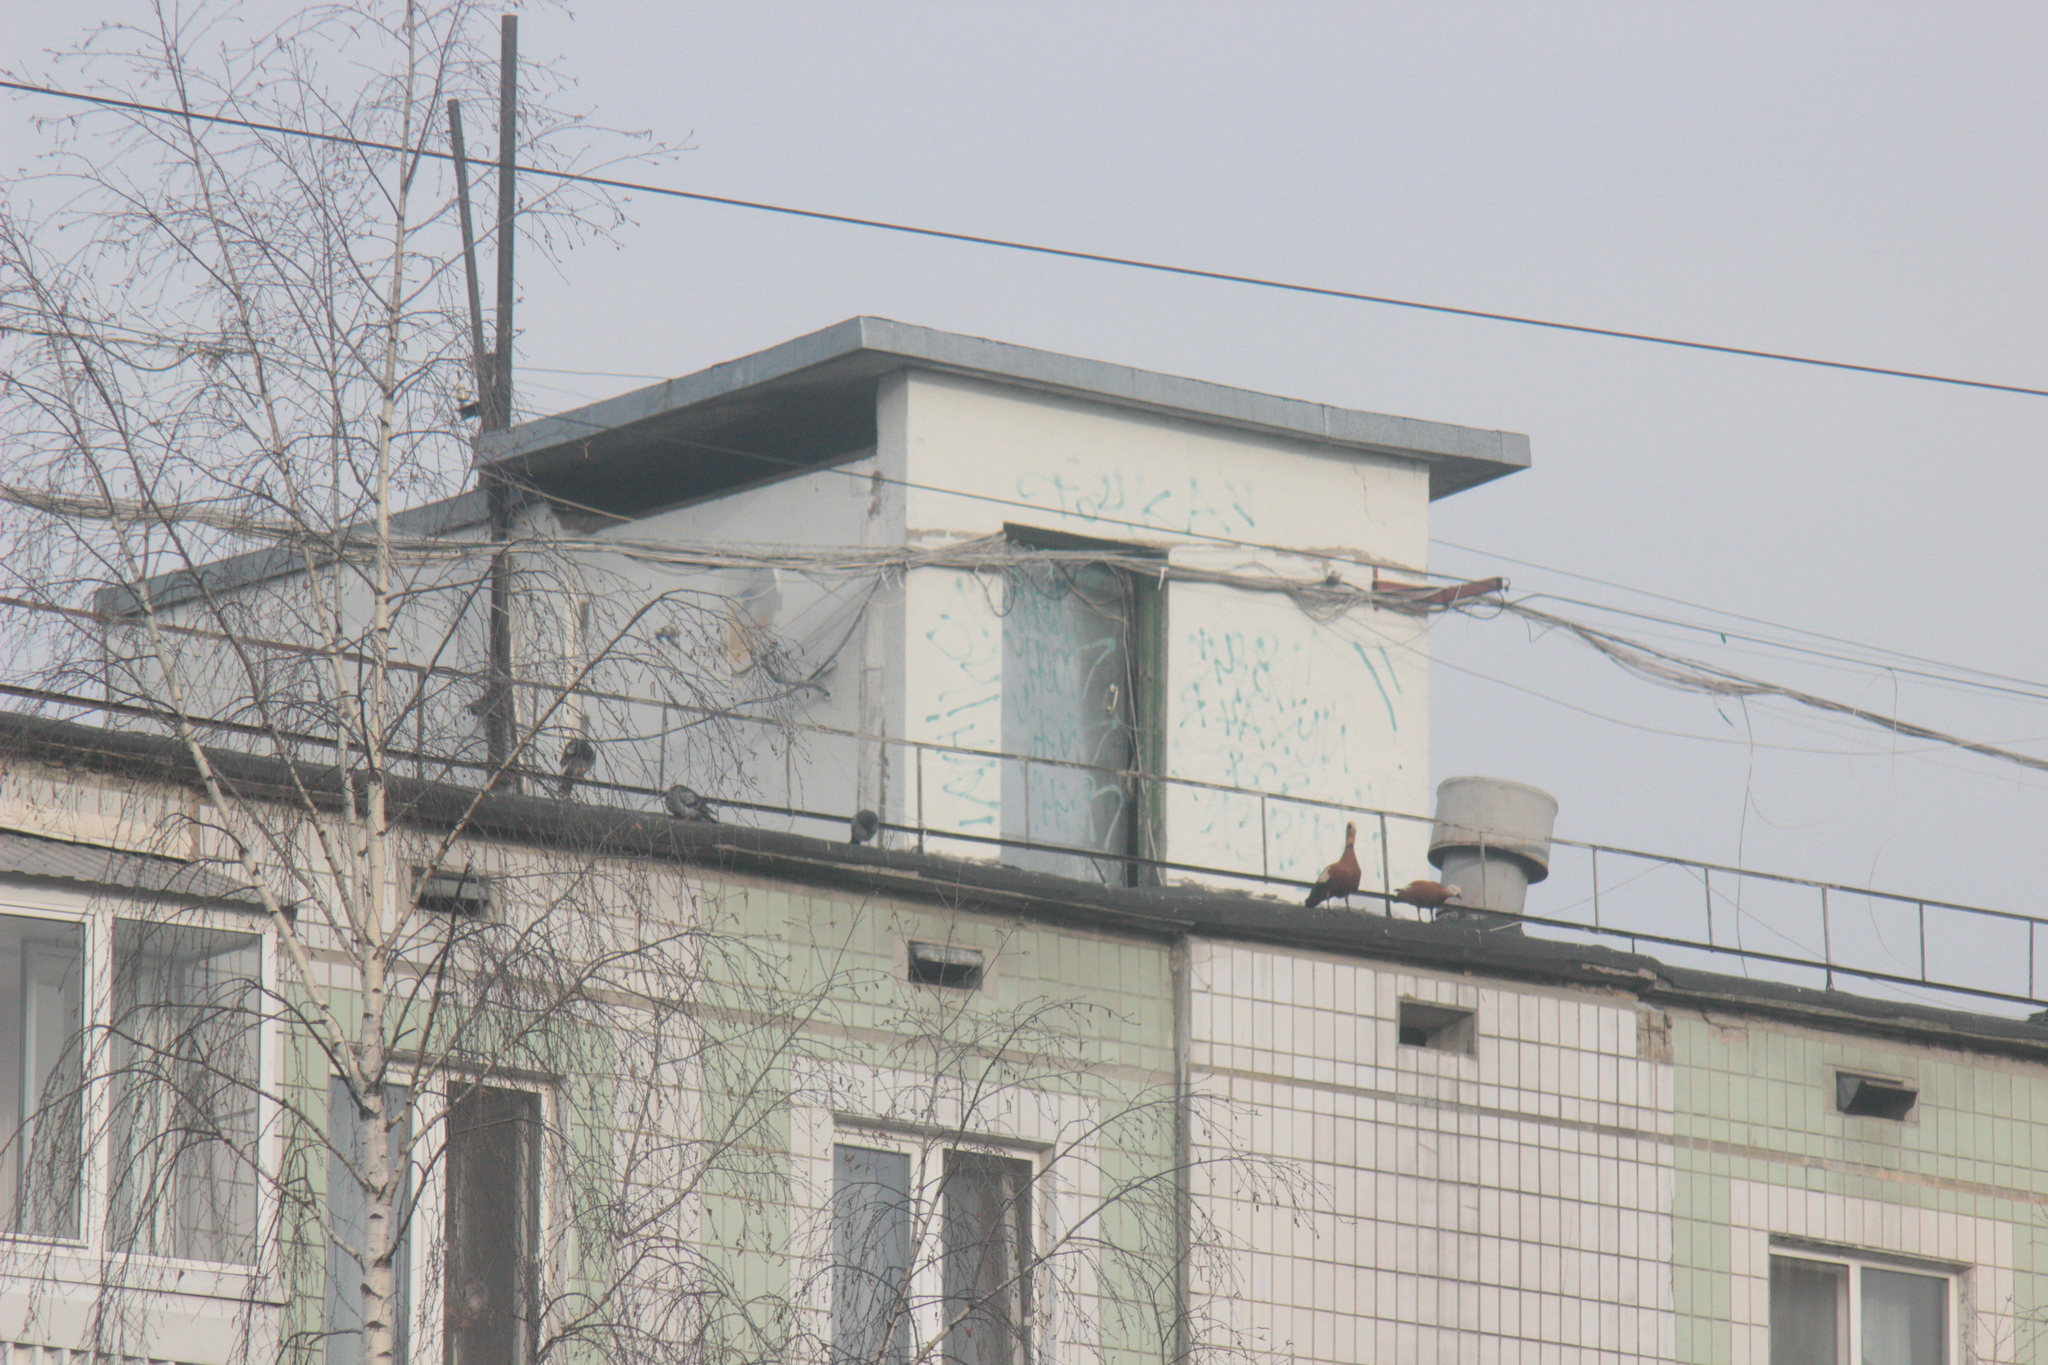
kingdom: Animalia
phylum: Chordata
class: Aves
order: Anseriformes
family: Anatidae
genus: Tadorna
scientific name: Tadorna ferruginea
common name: Ruddy shelduck
